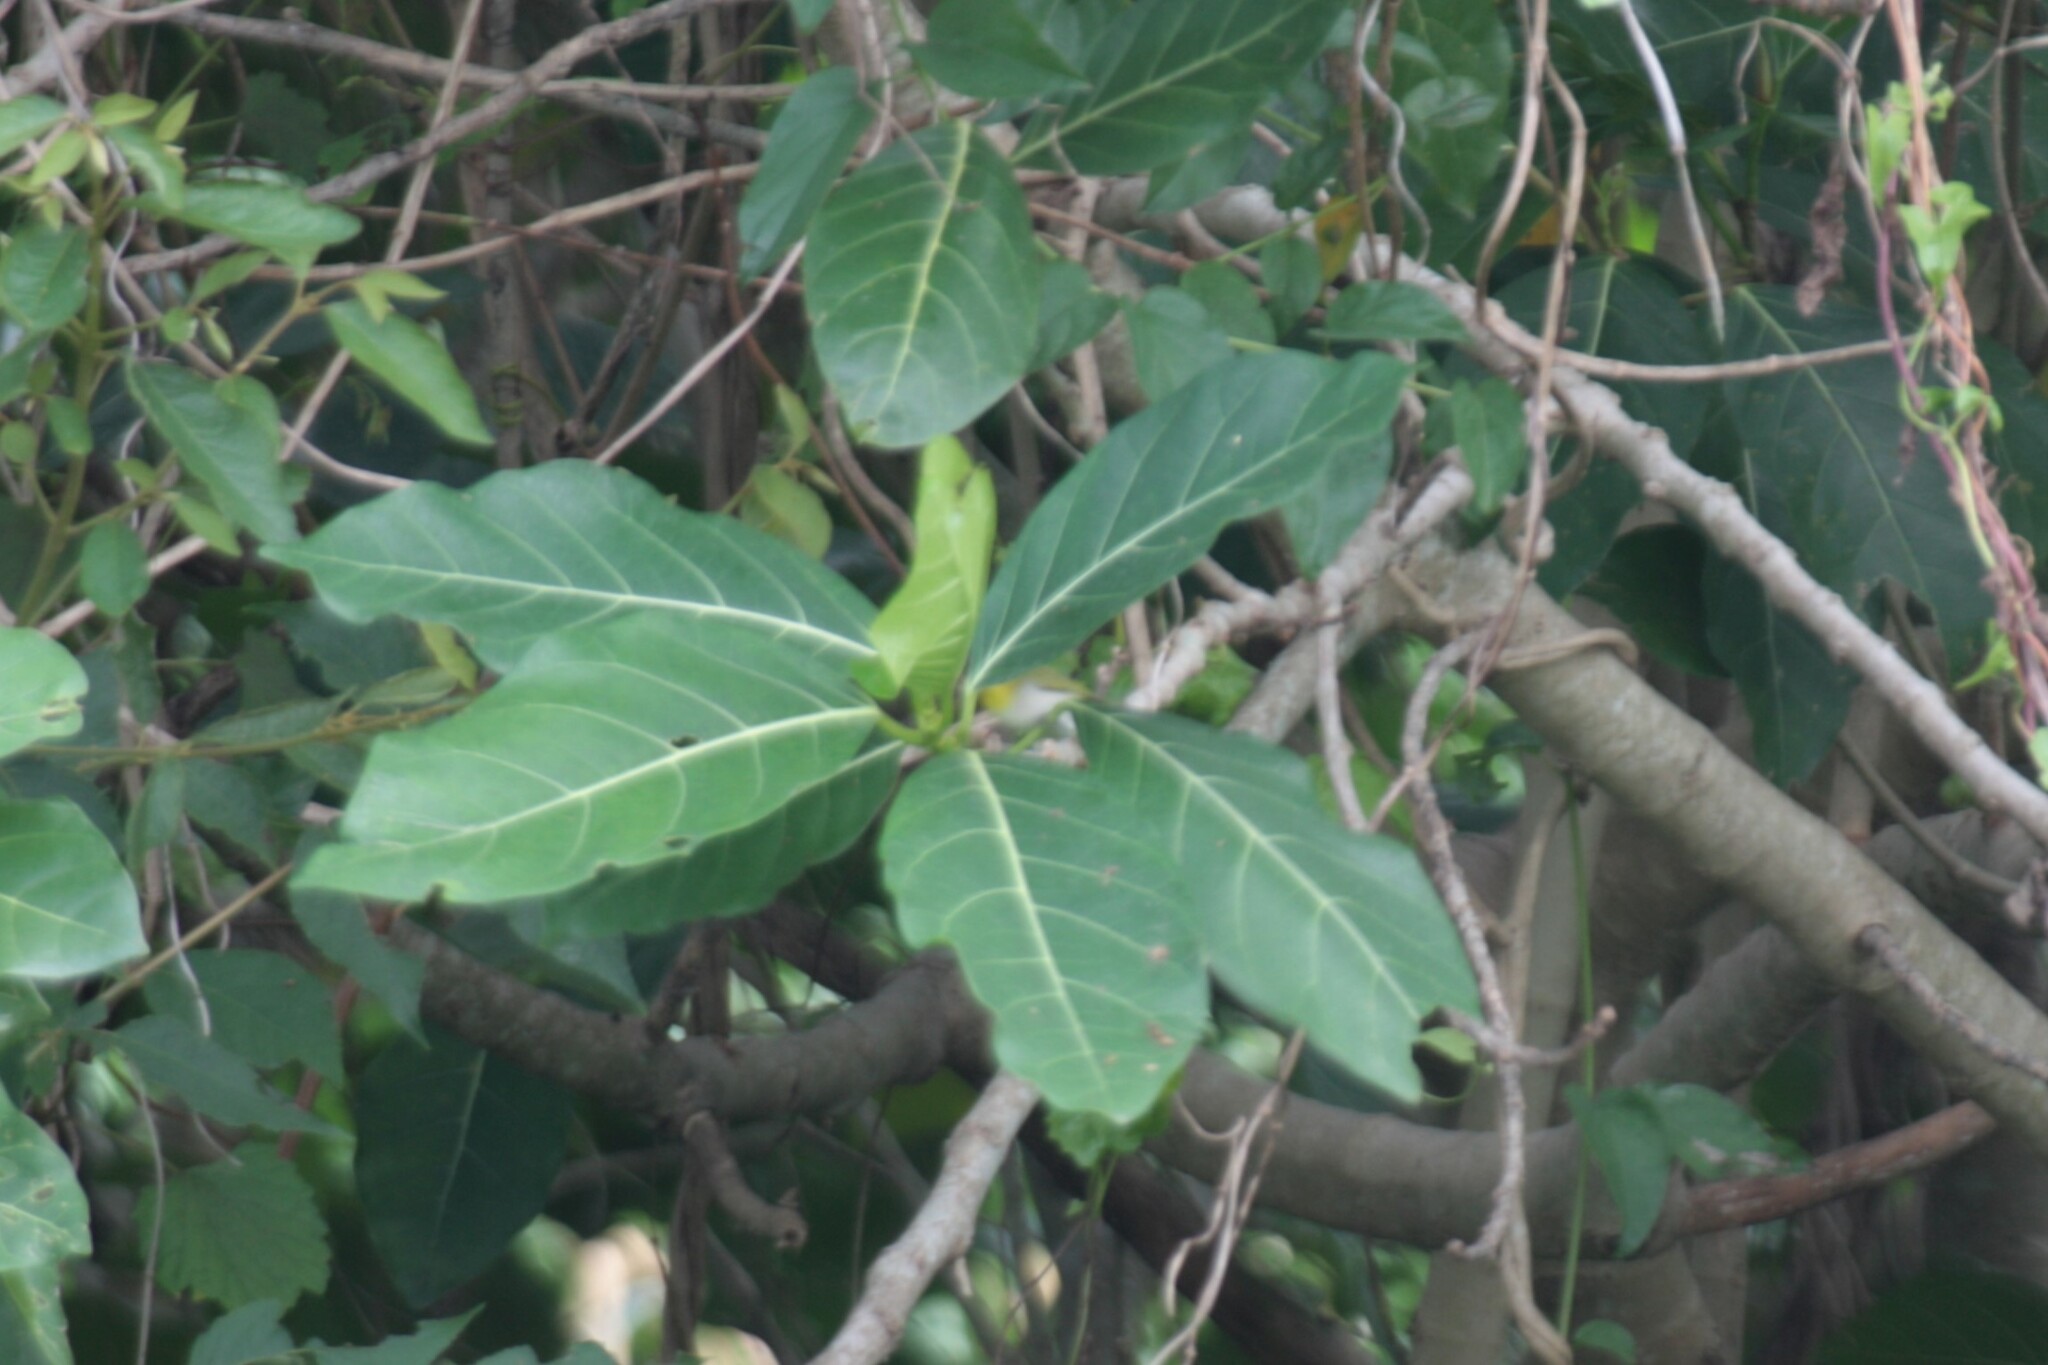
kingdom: Animalia
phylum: Chordata
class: Aves
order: Passeriformes
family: Zosteropidae
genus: Zosterops
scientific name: Zosterops simplex
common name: Swinhoe's white-eye
